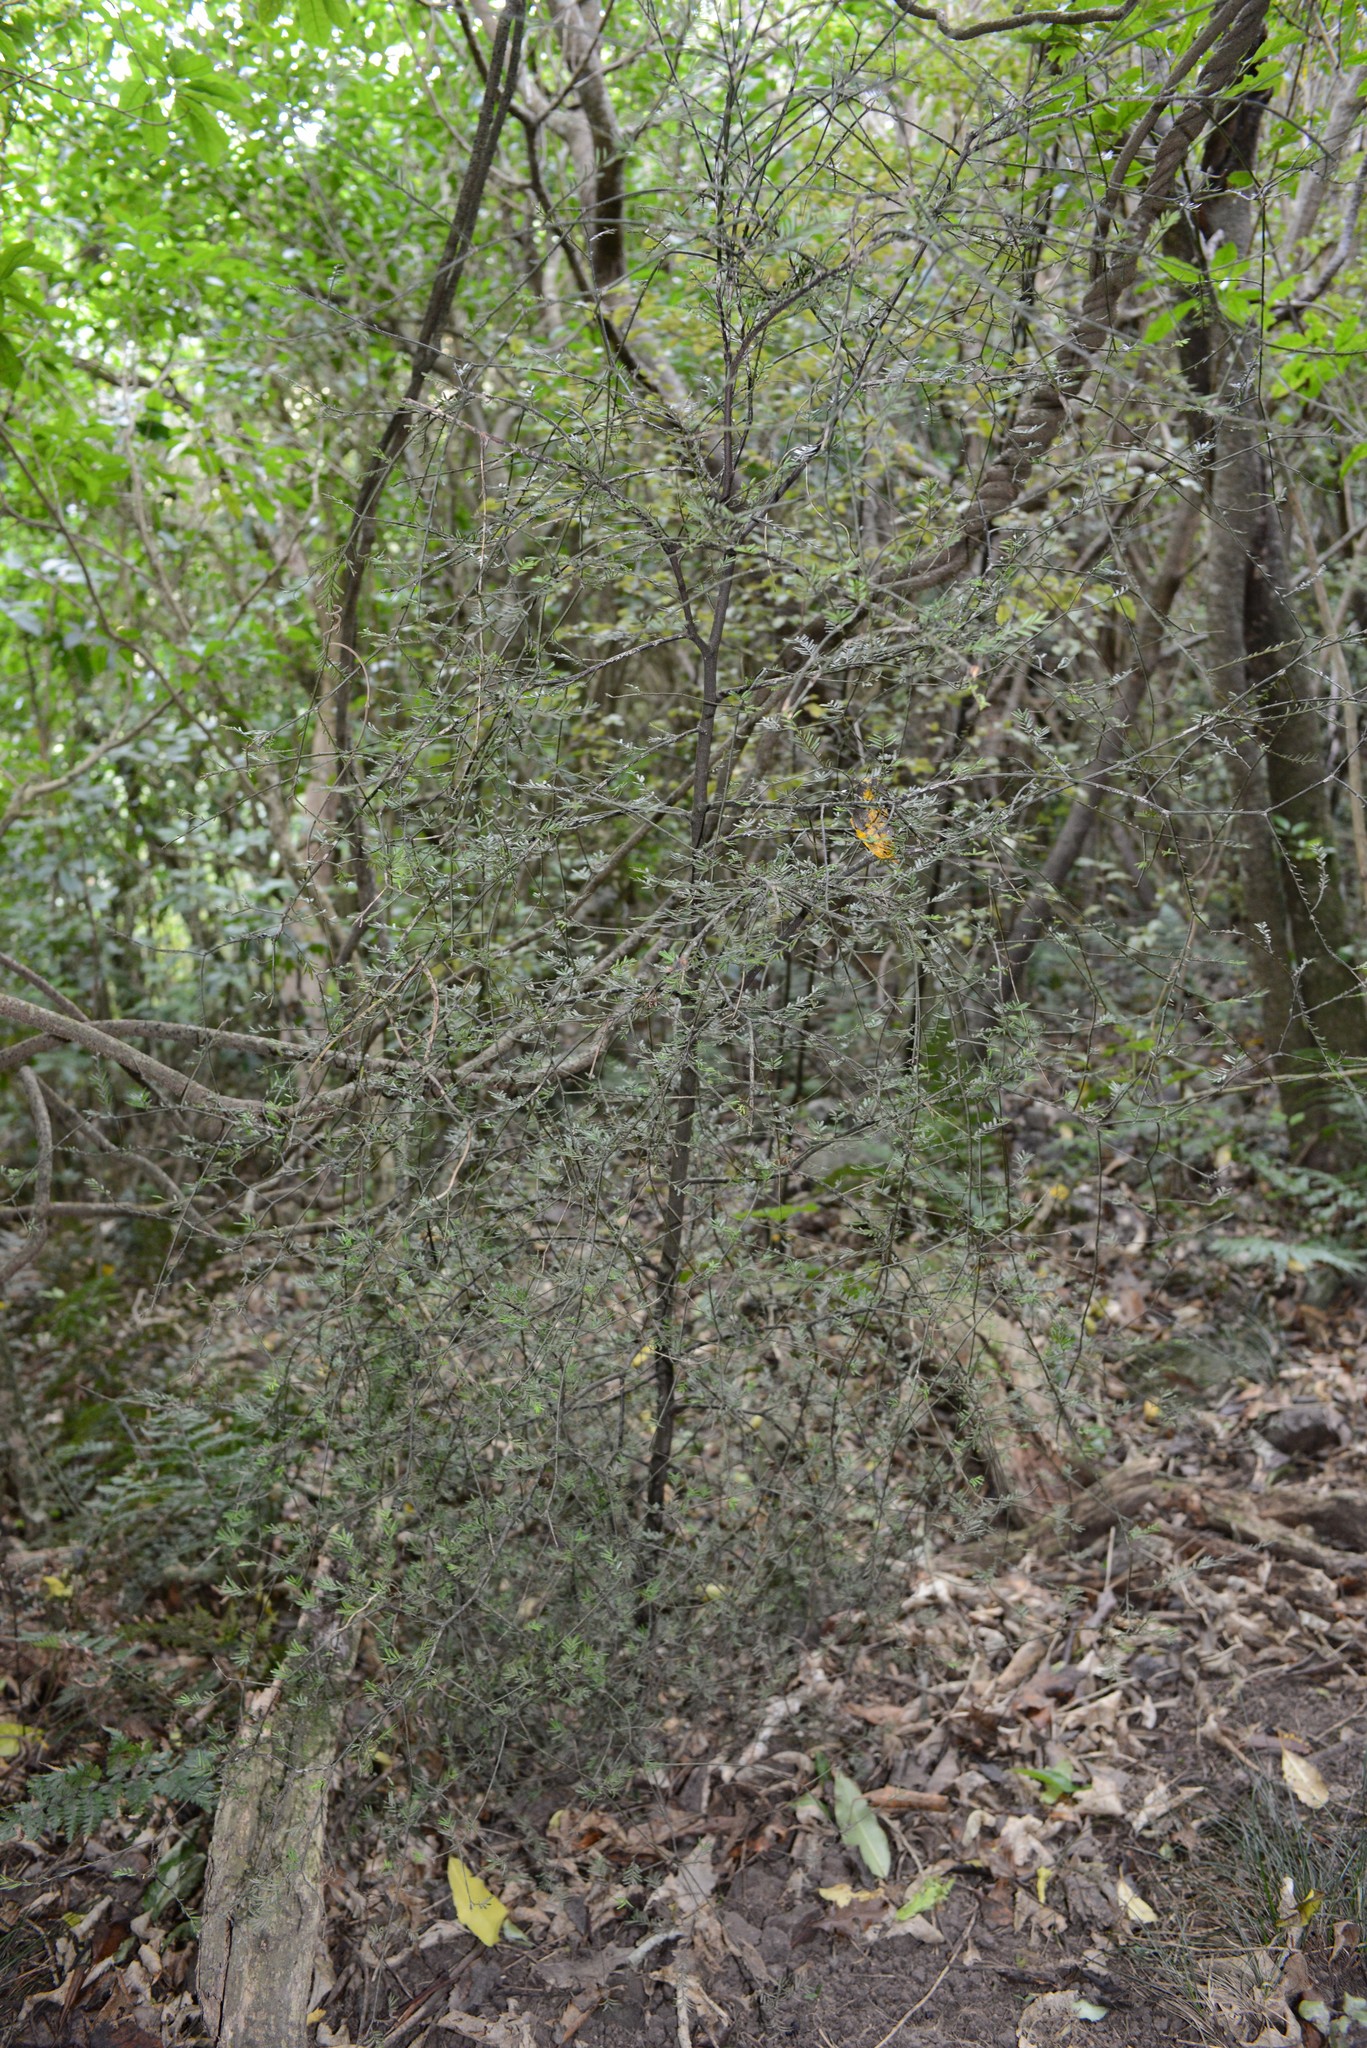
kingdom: Plantae
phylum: Tracheophyta
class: Pinopsida
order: Pinales
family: Podocarpaceae
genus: Prumnopitys
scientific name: Prumnopitys taxifolia
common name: Matai
